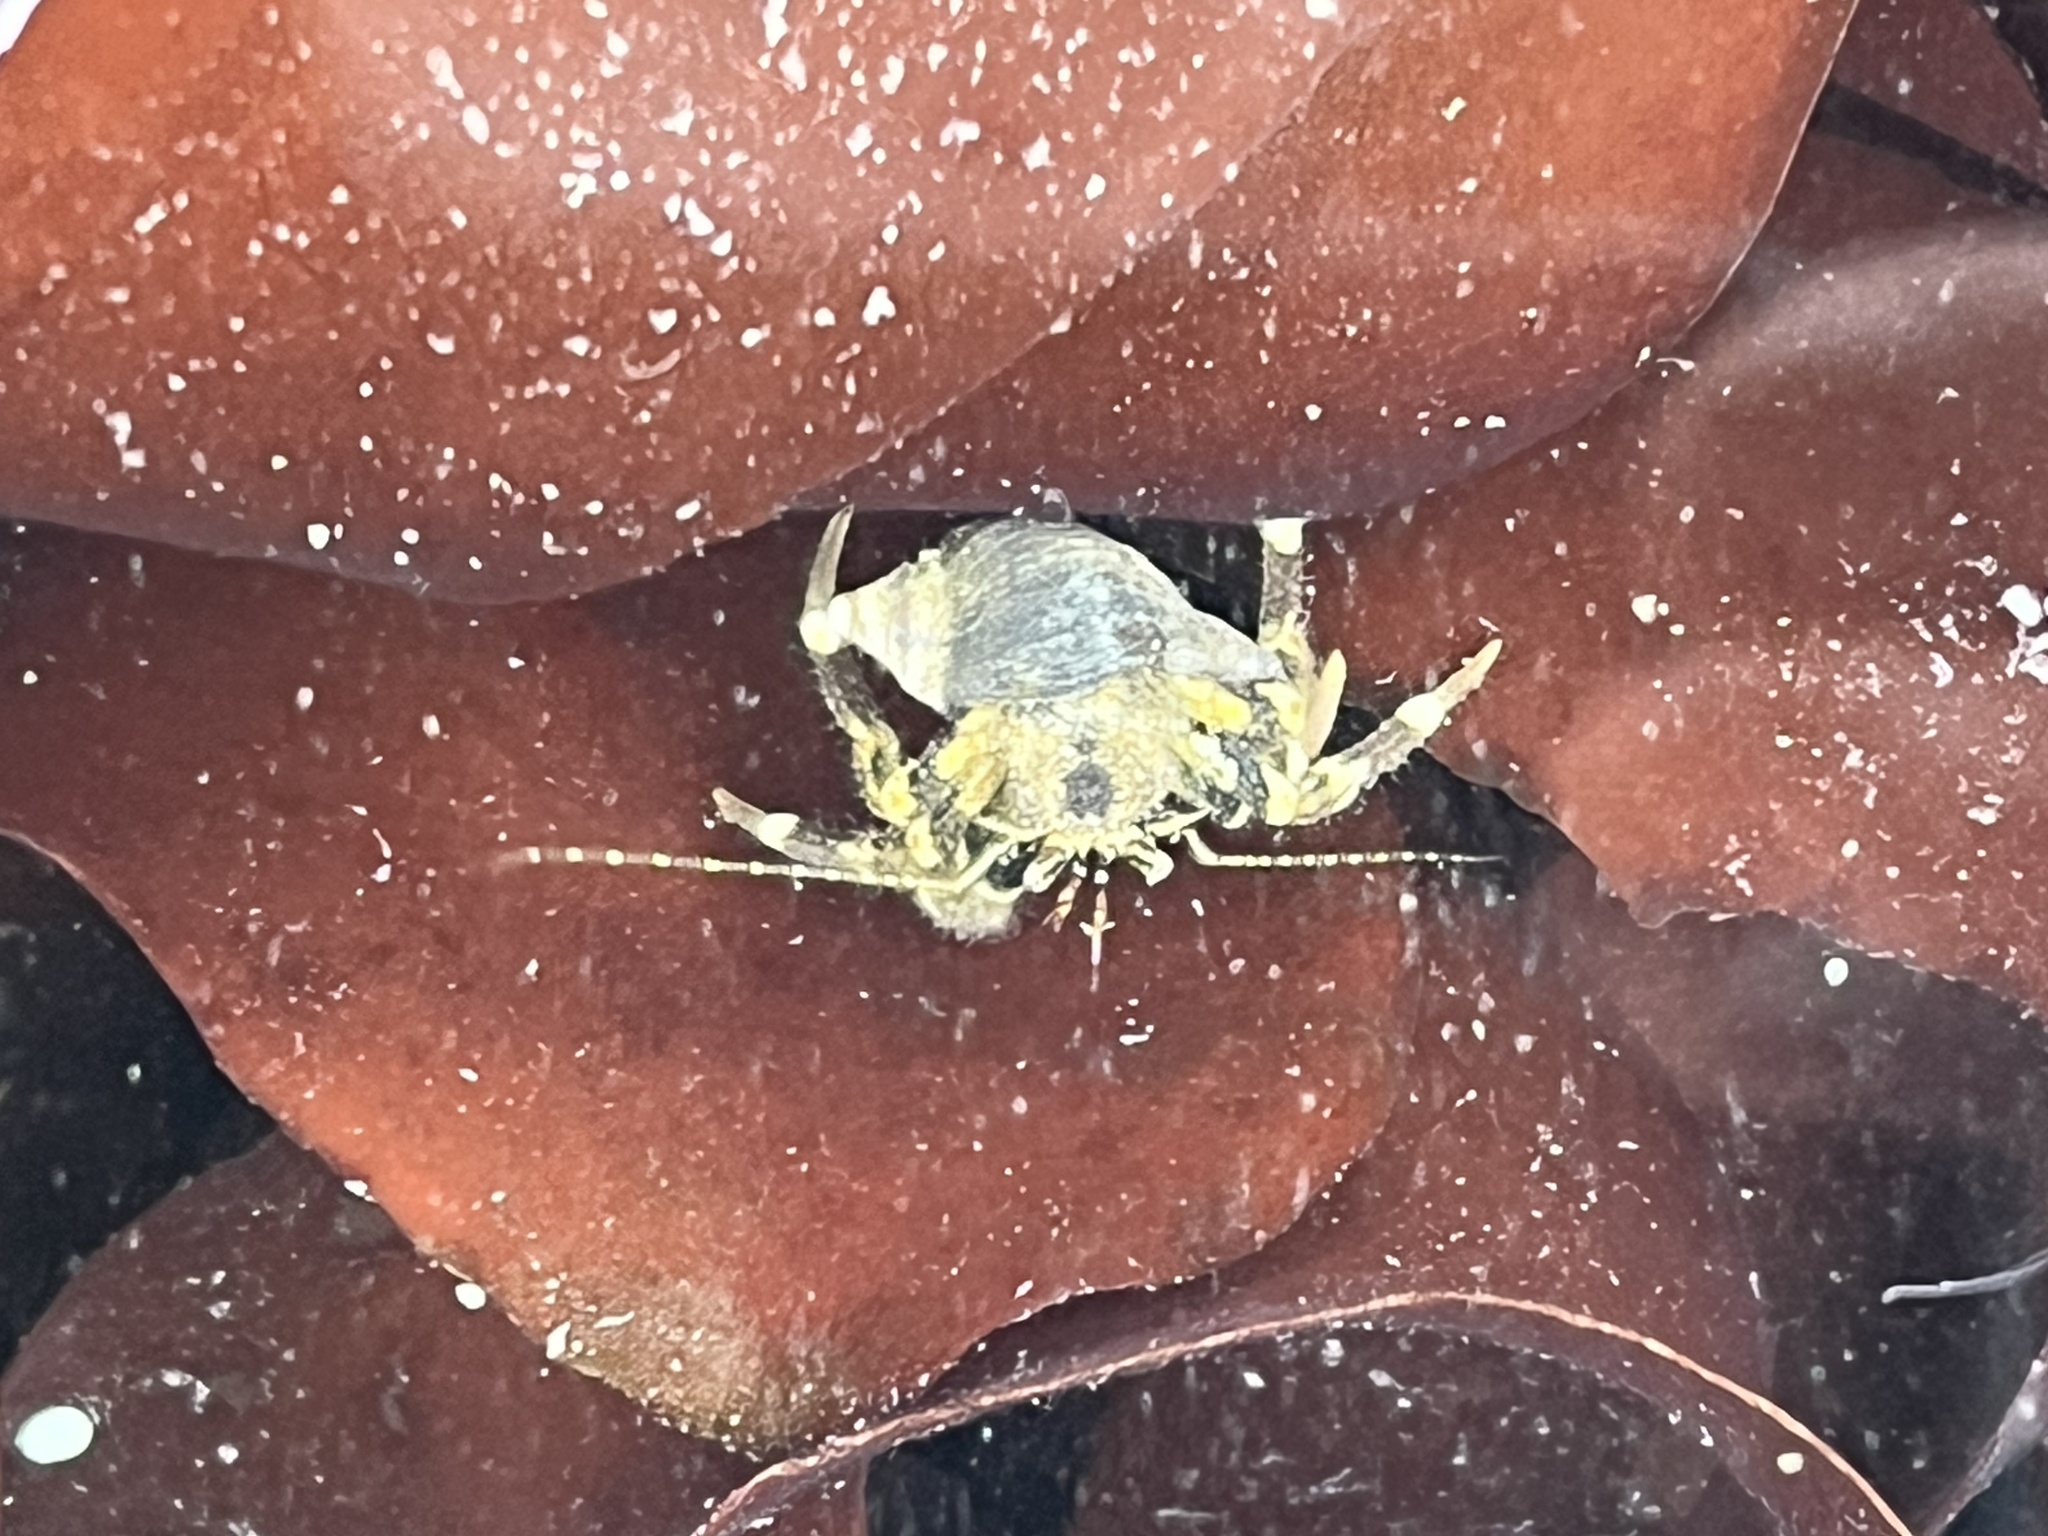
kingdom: Animalia
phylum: Arthropoda
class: Malacostraca
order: Decapoda
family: Paguridae
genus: Pagurus
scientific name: Pagurus hirsutiusculus
